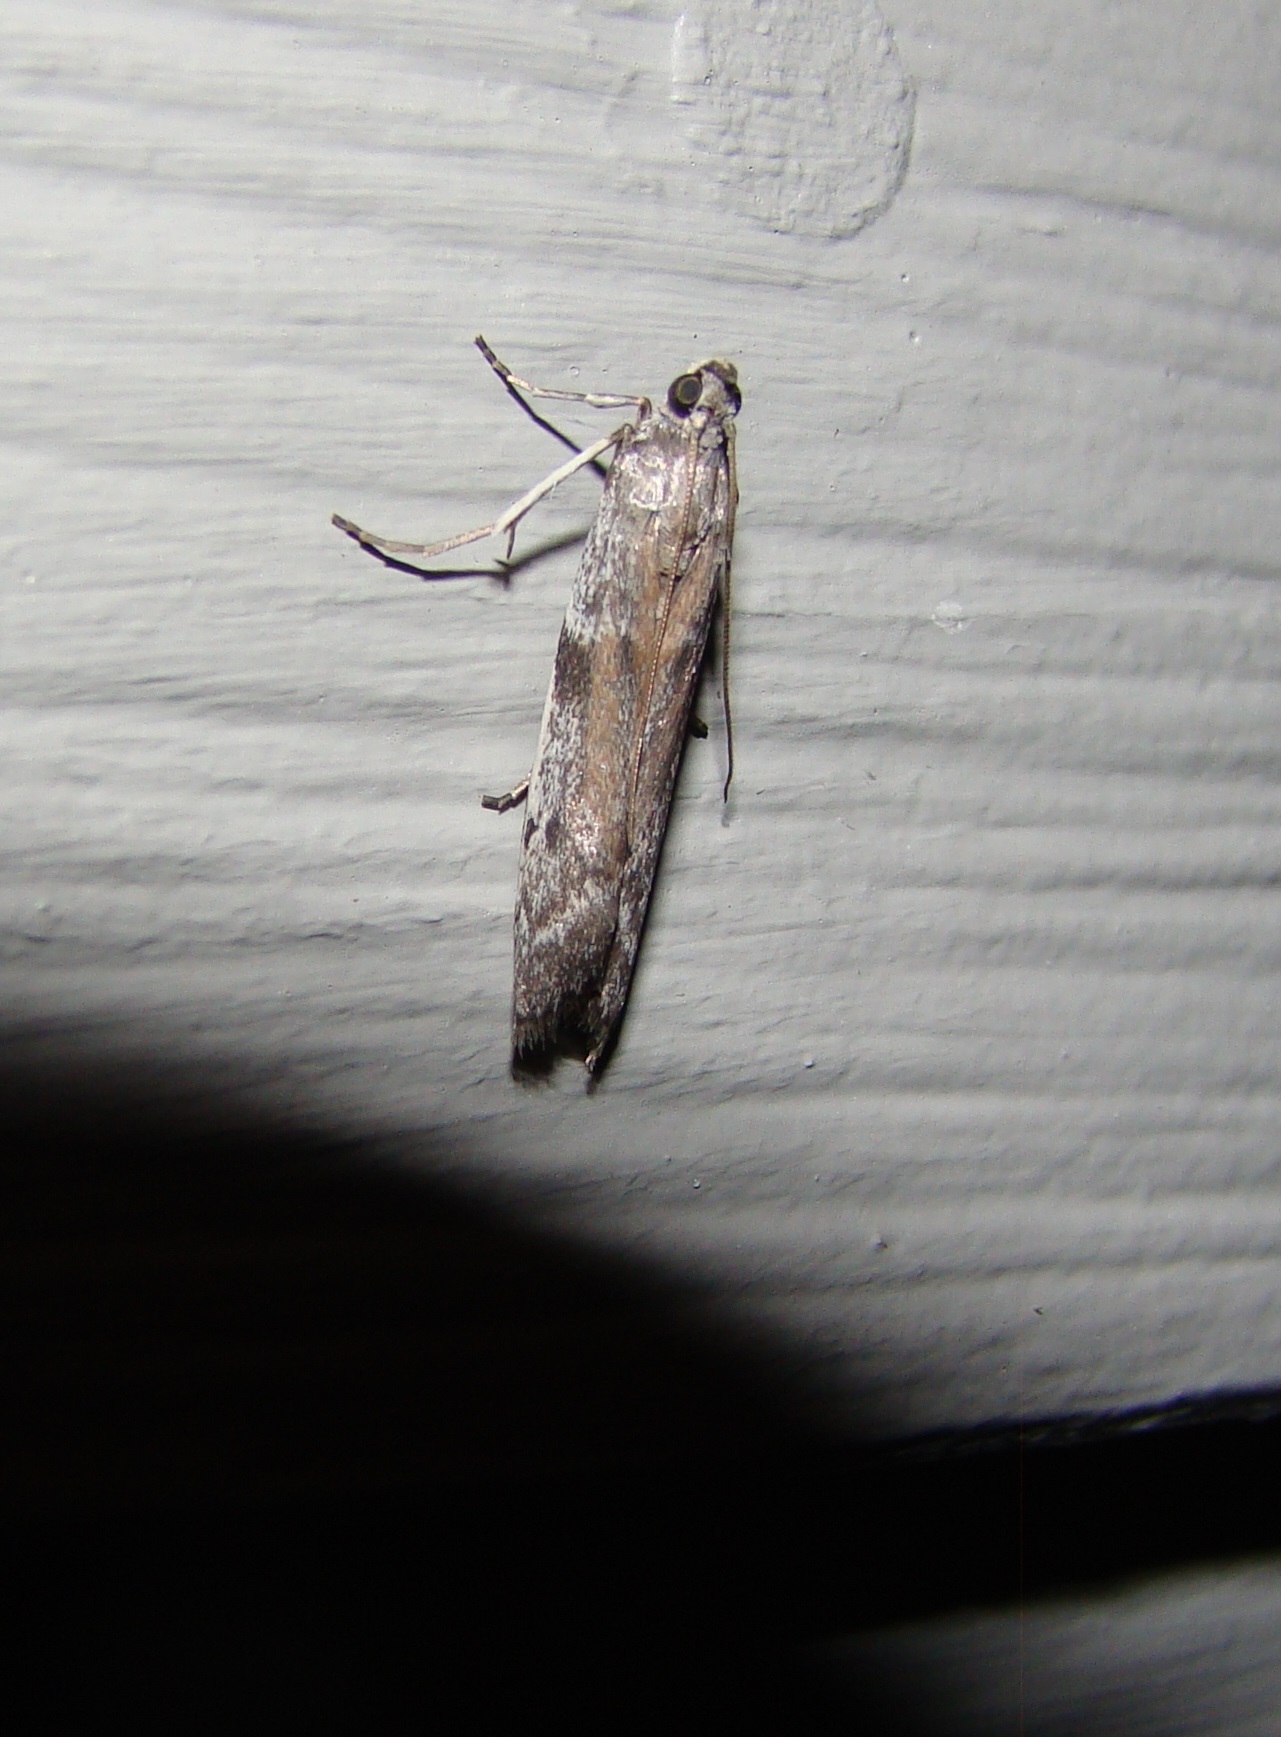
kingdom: Animalia
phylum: Arthropoda
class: Insecta
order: Lepidoptera
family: Pyralidae
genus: Patagoniodes
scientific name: Patagoniodes farinaria
